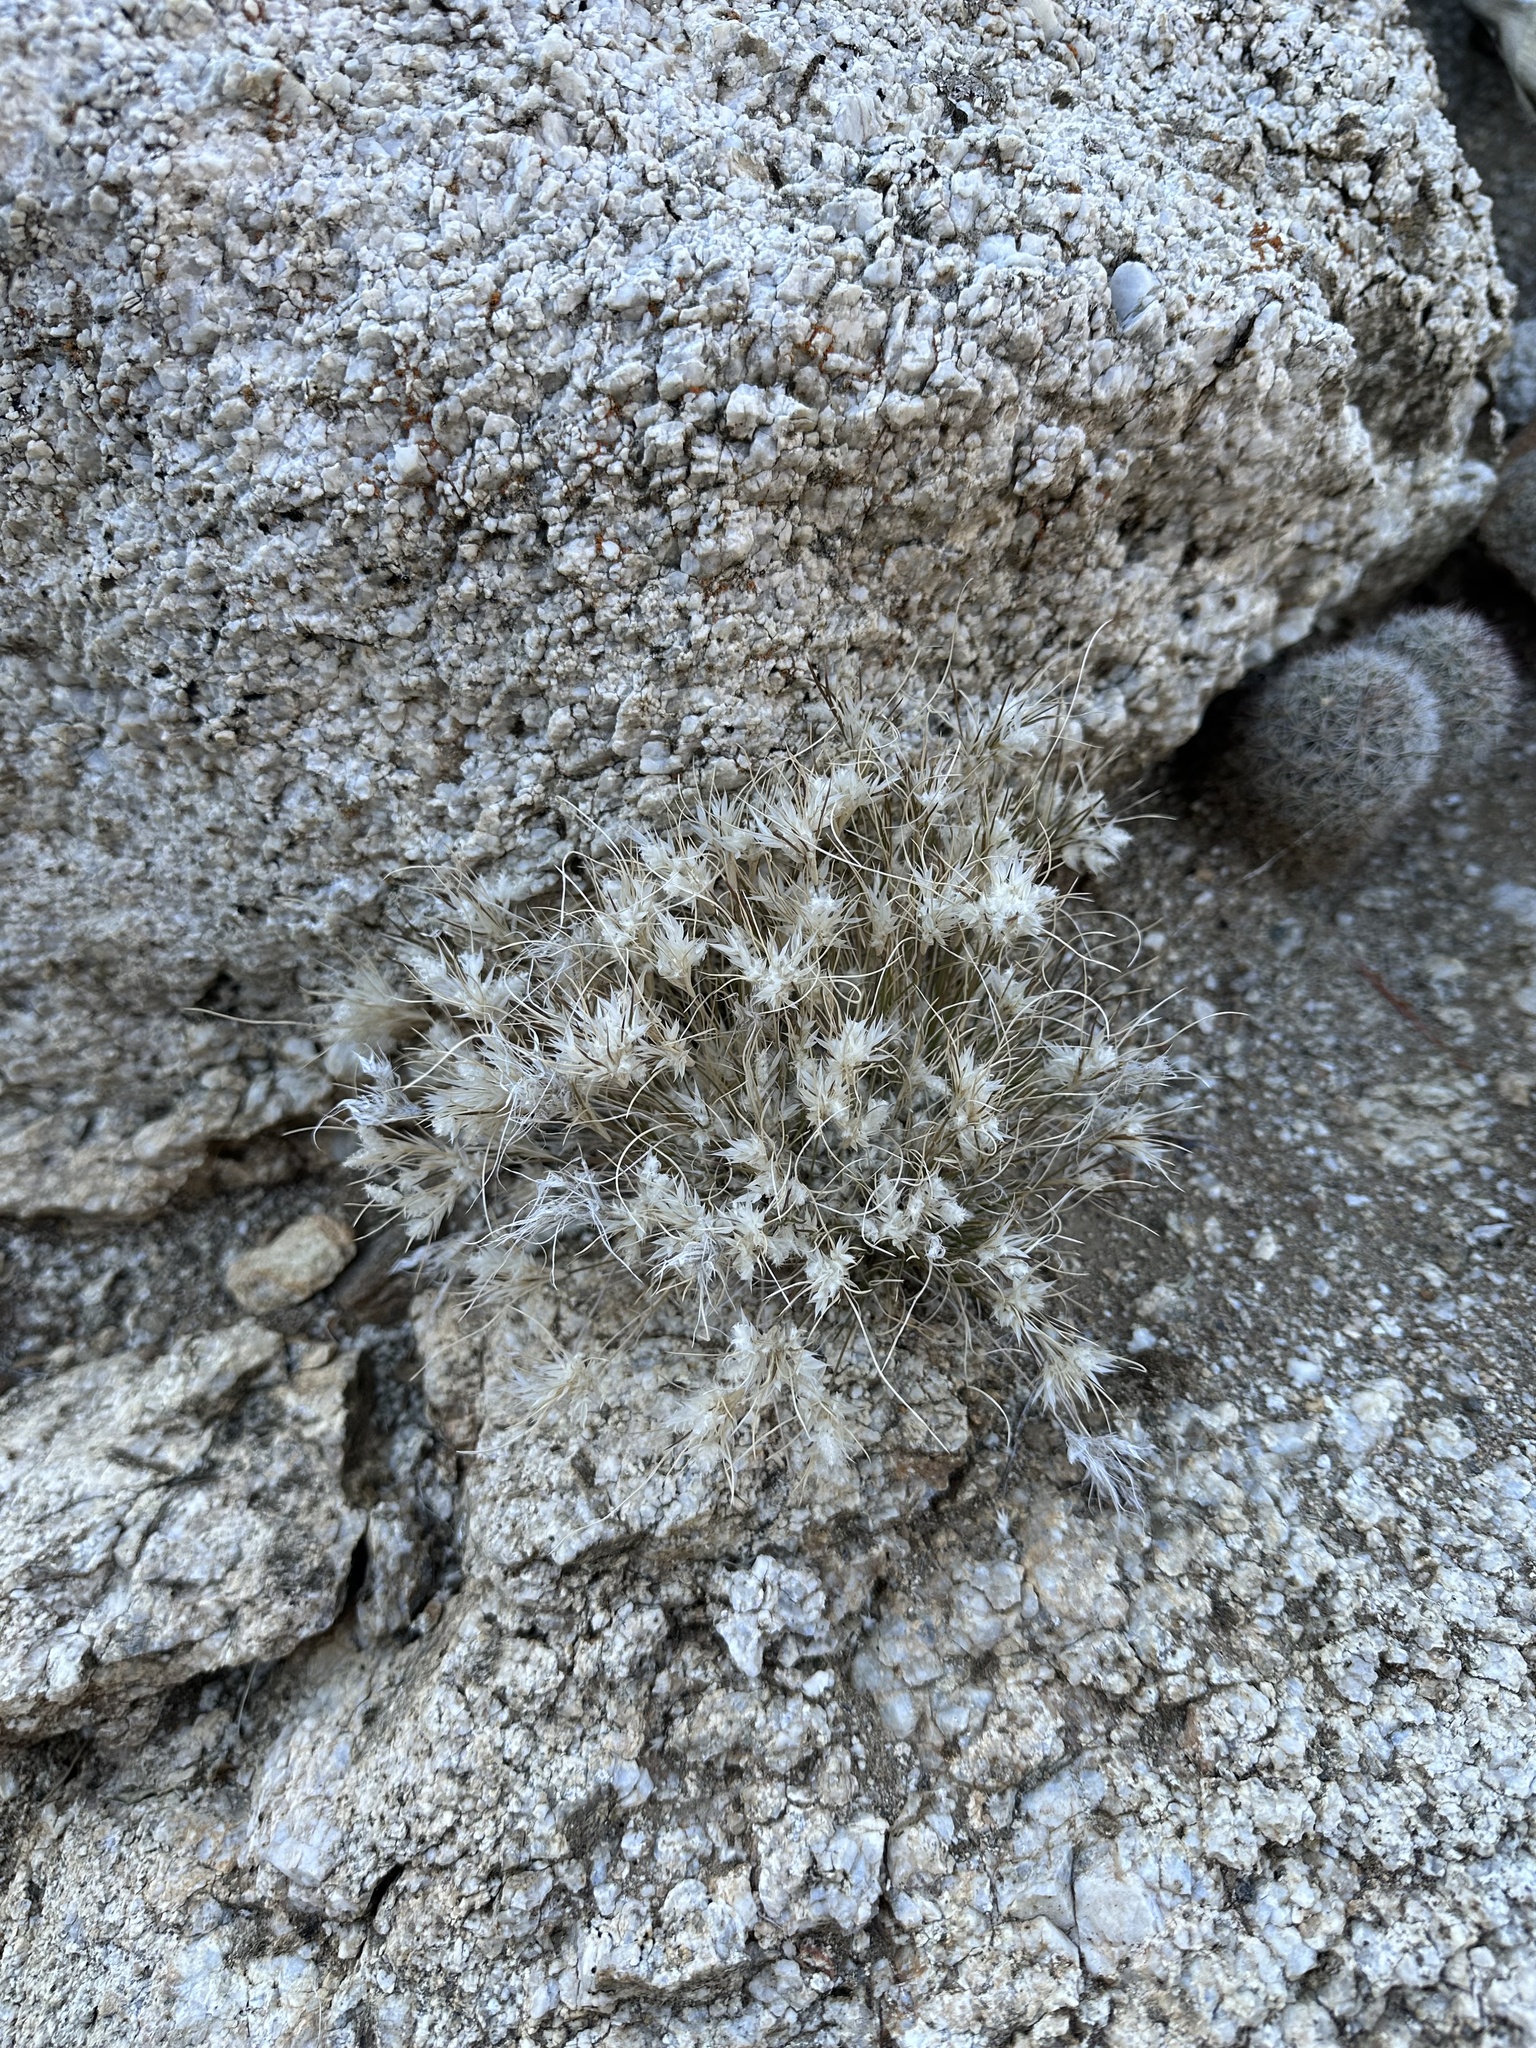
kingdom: Plantae
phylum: Tracheophyta
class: Liliopsida
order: Poales
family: Poaceae
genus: Dasyochloa
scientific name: Dasyochloa pulchella
